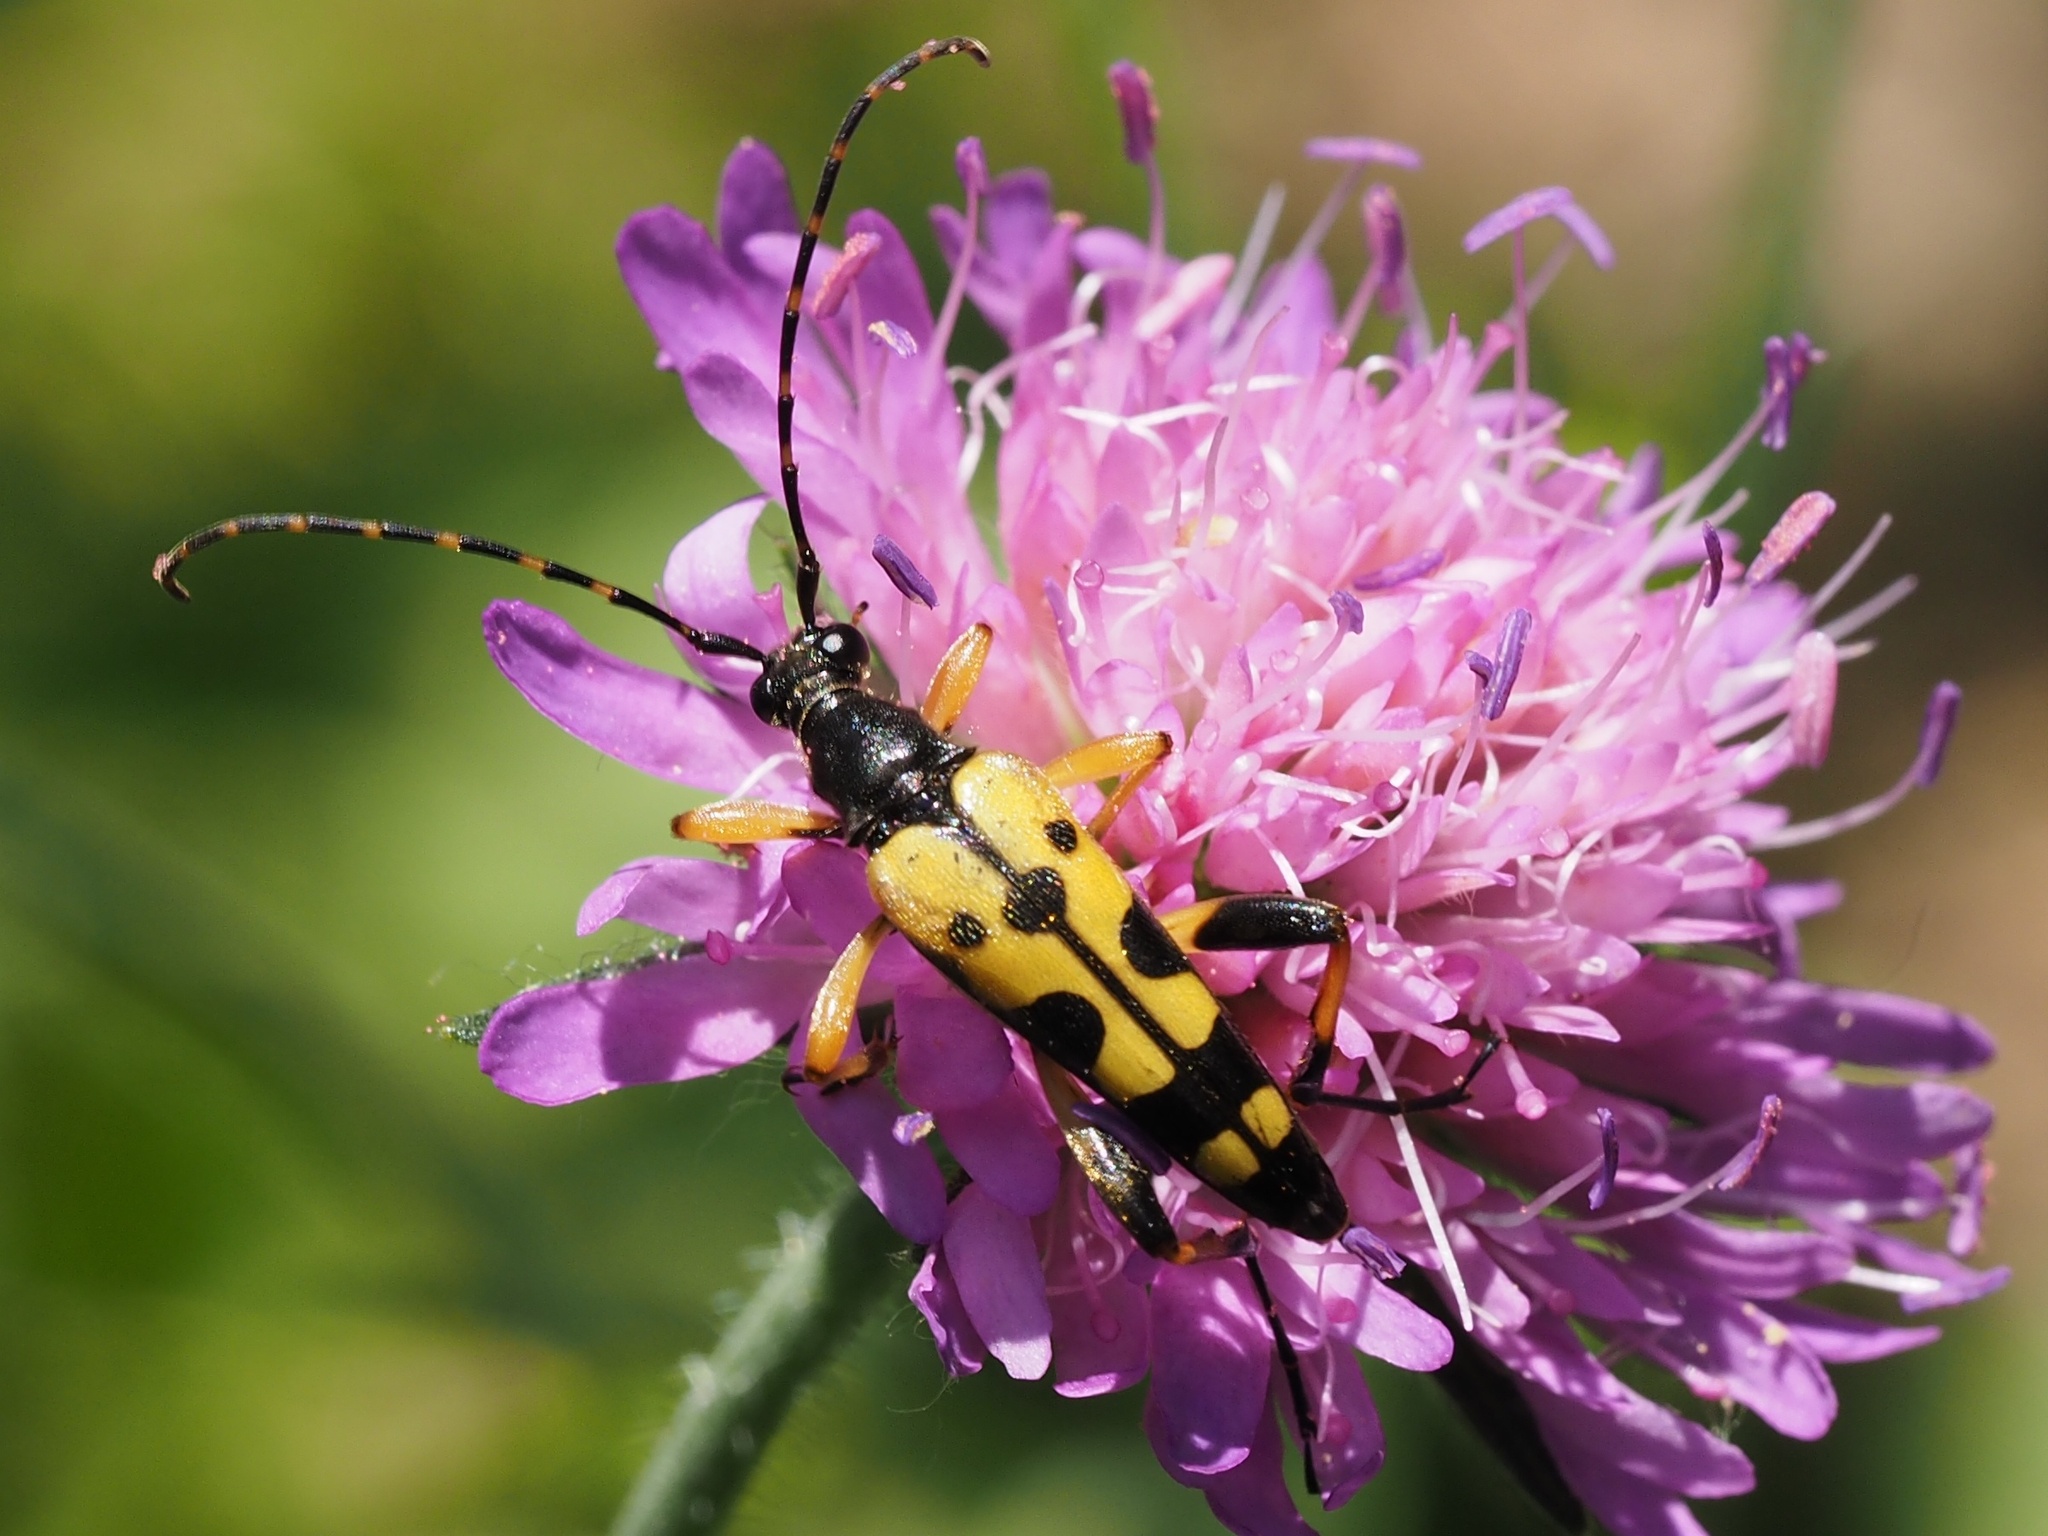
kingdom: Animalia
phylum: Arthropoda
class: Insecta
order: Coleoptera
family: Cerambycidae
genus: Rutpela
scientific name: Rutpela maculata
